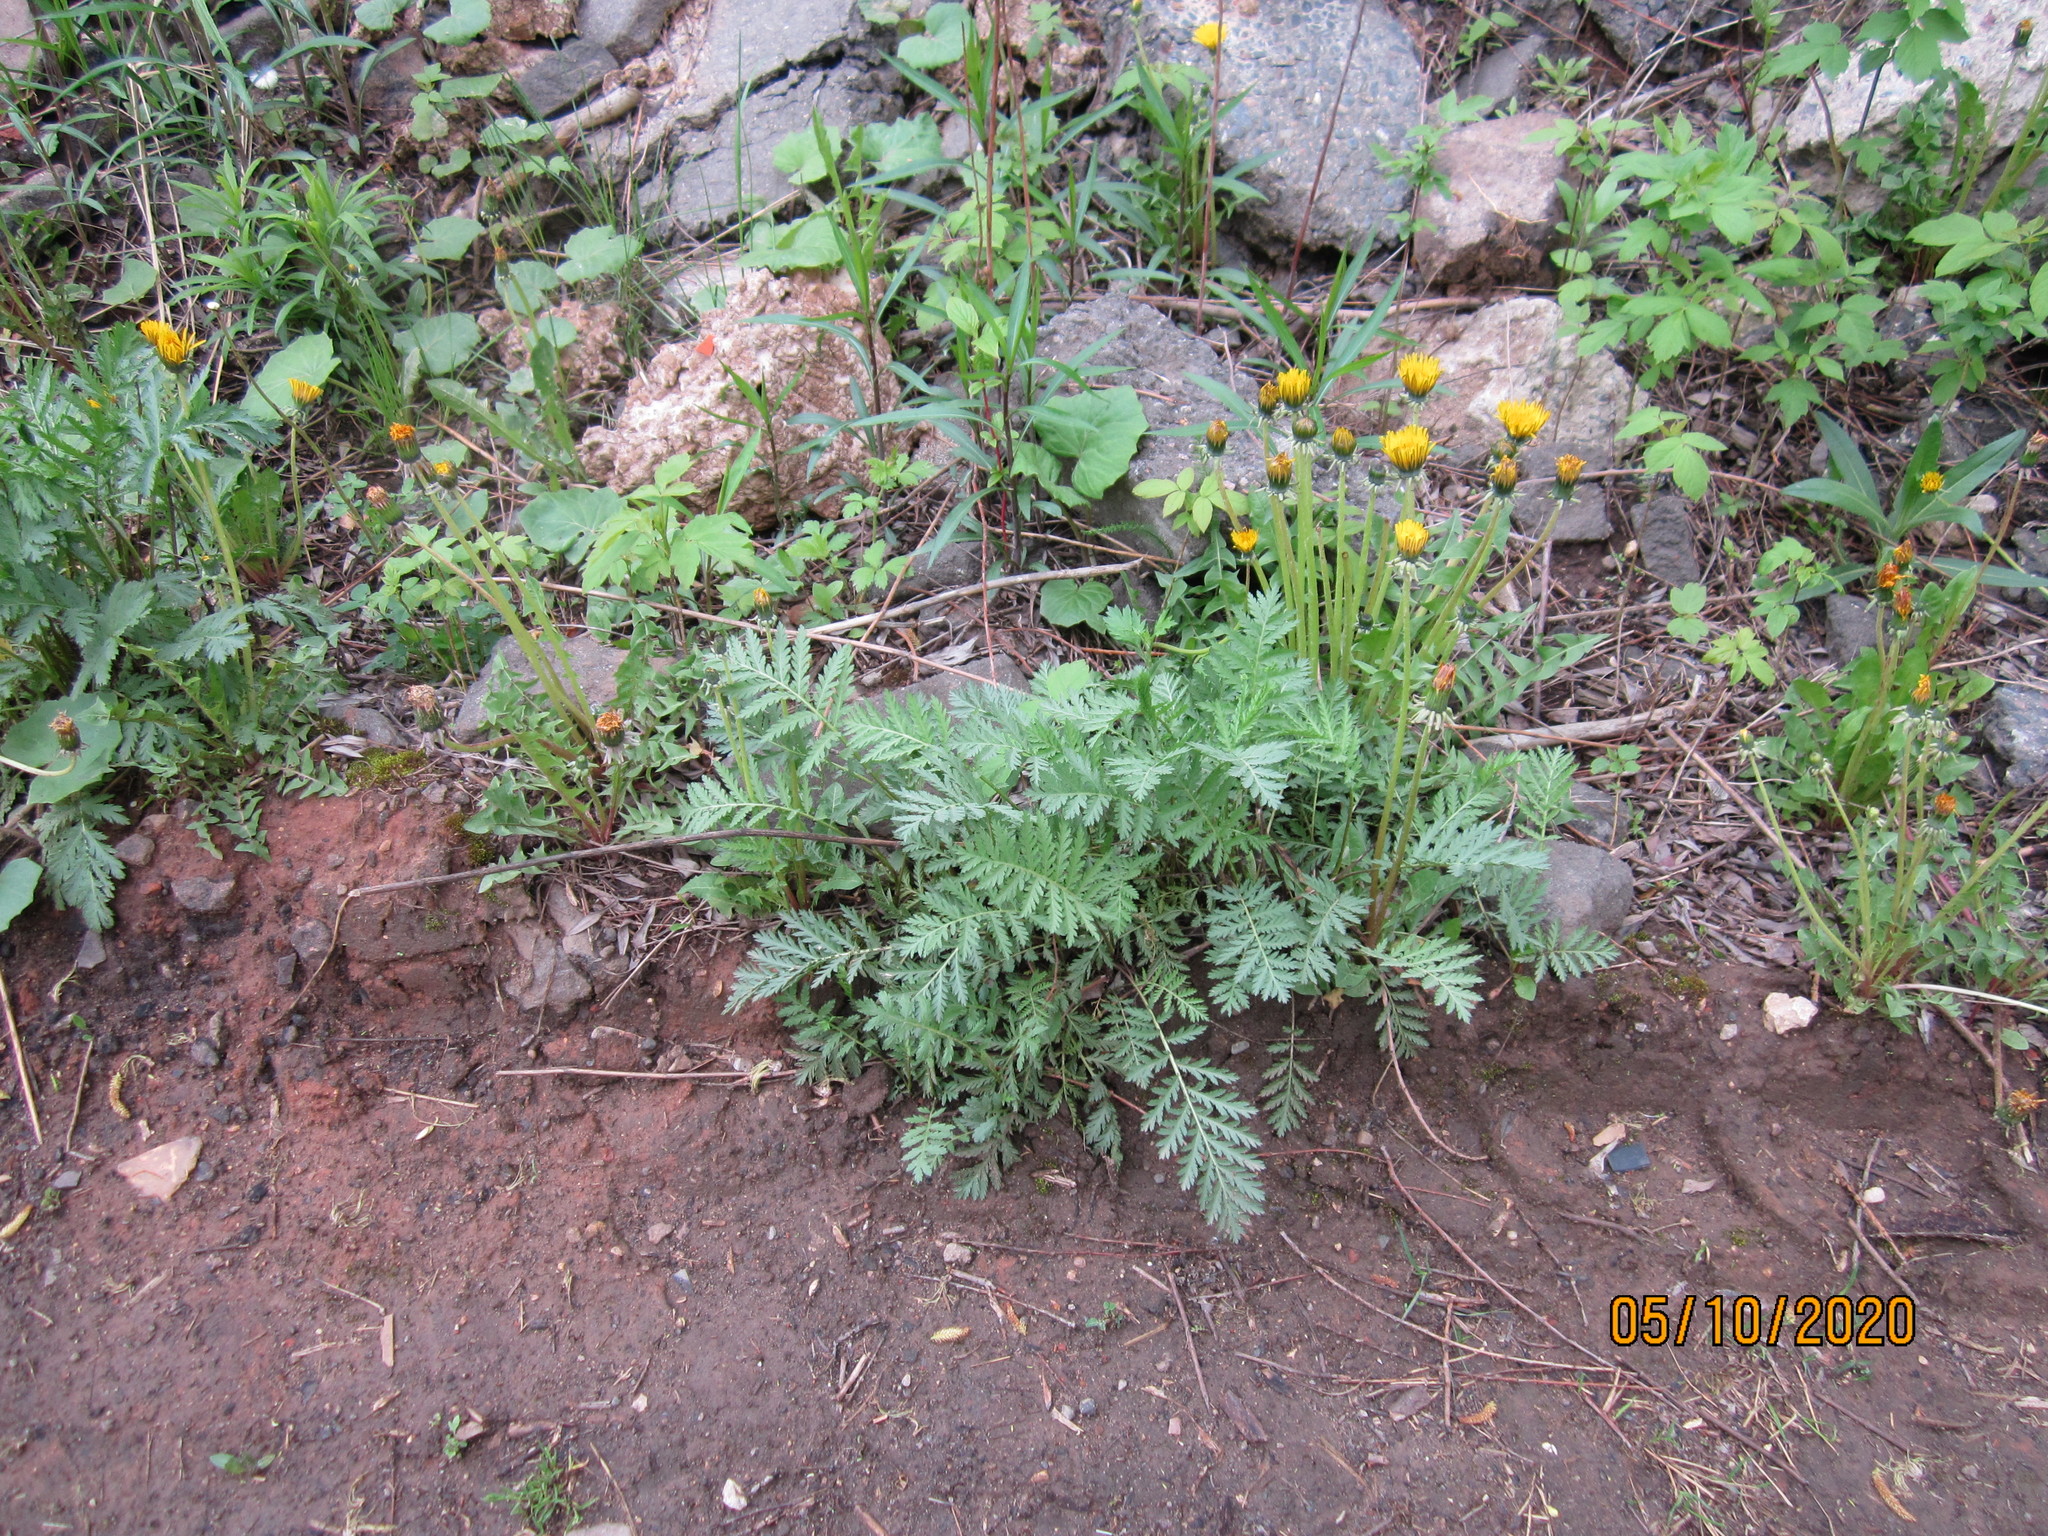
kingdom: Plantae
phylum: Tracheophyta
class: Magnoliopsida
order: Asterales
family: Asteraceae
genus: Tanacetum
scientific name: Tanacetum vulgare
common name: Common tansy
